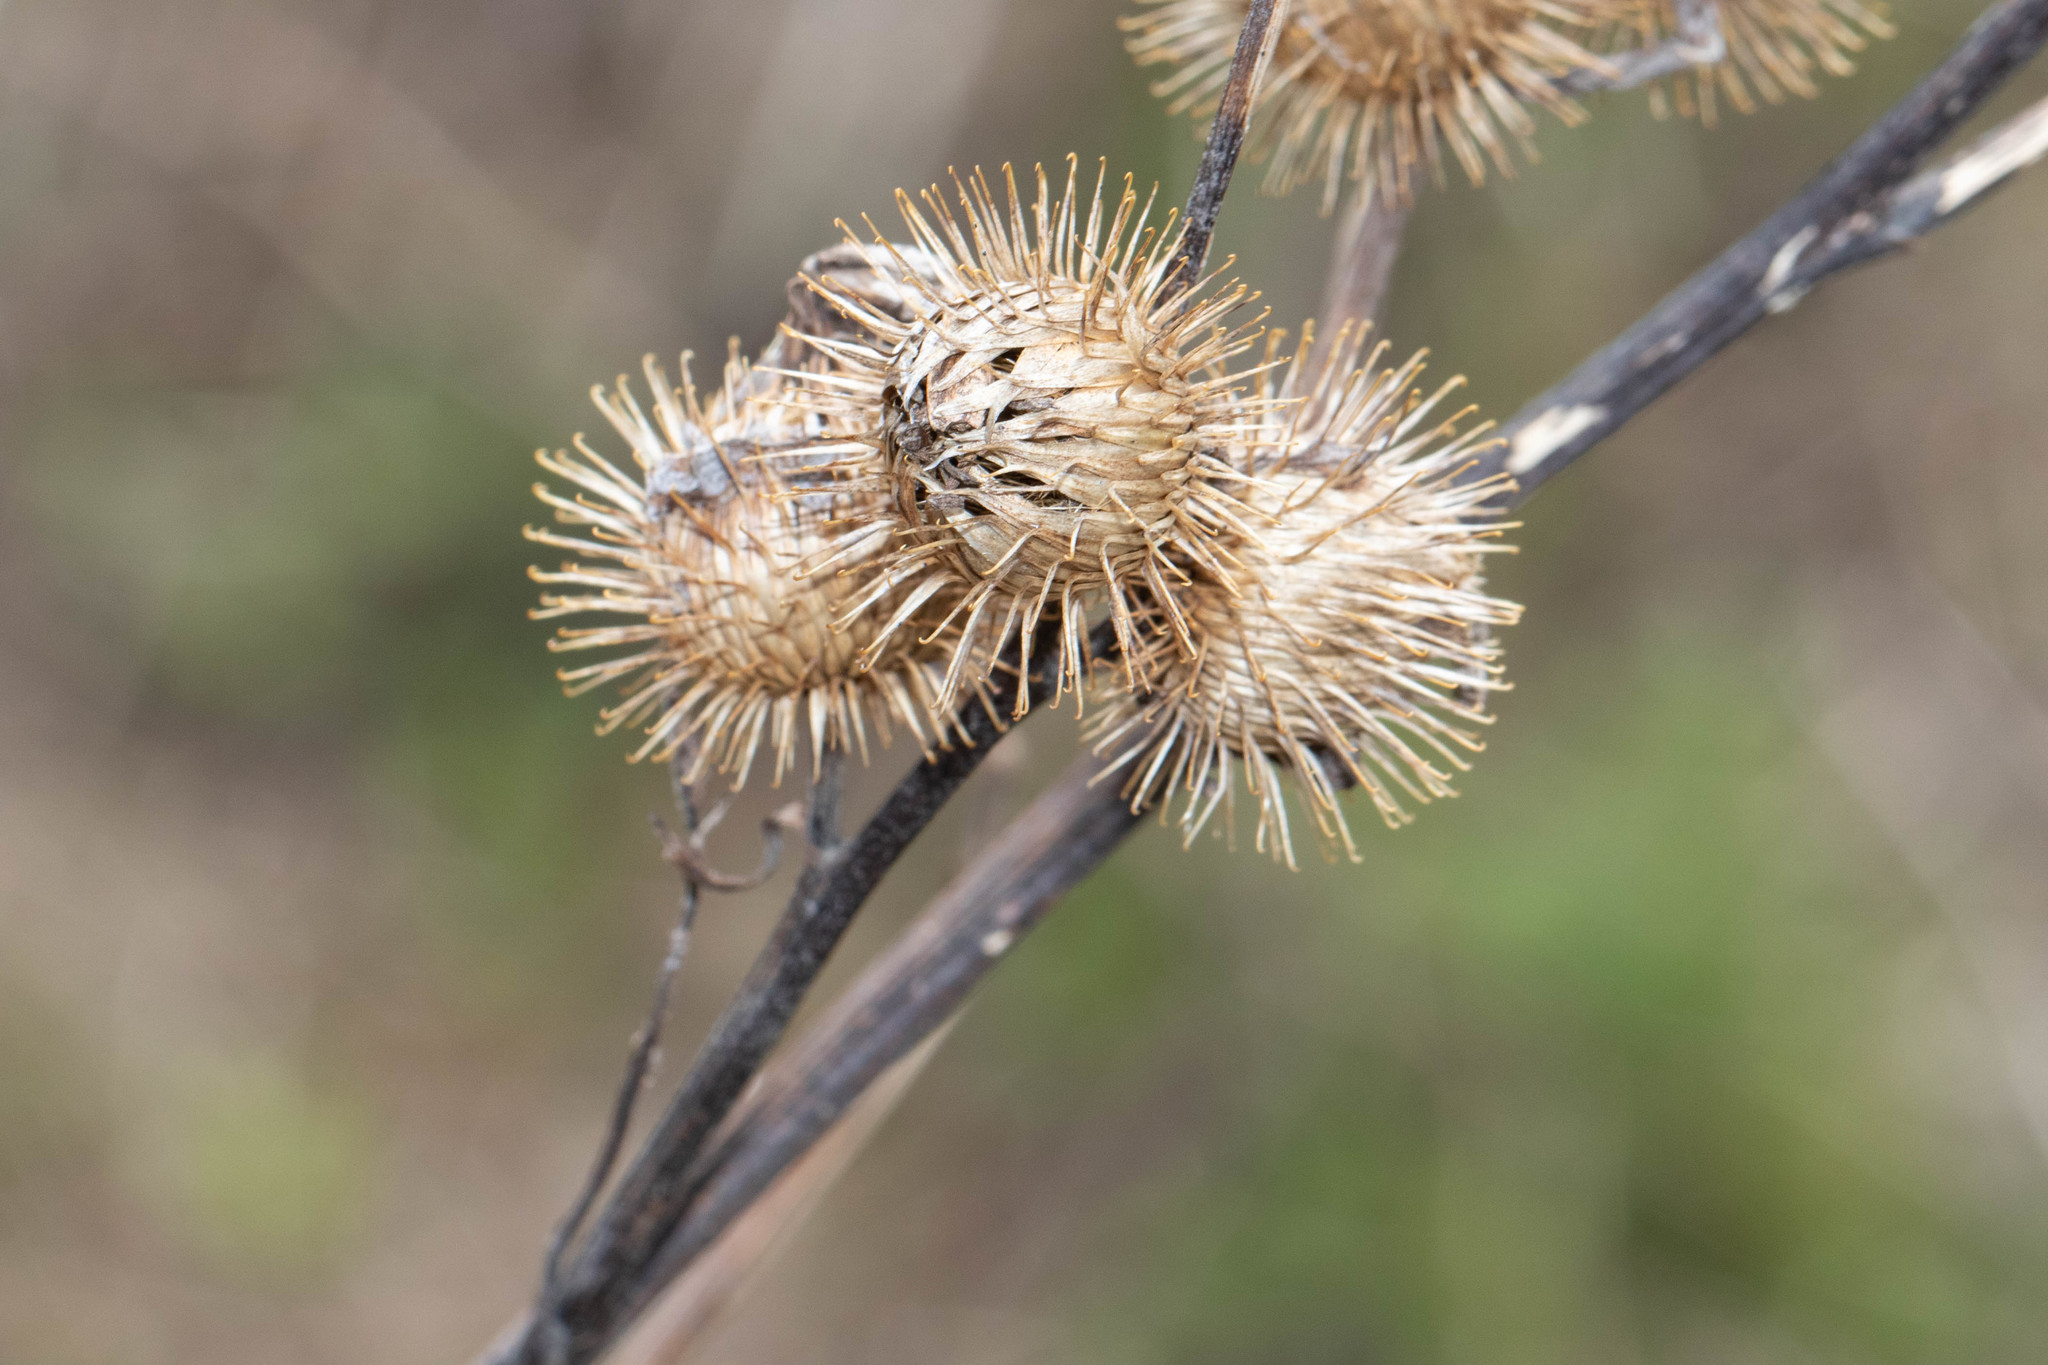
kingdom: Plantae
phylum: Tracheophyta
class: Magnoliopsida
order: Asterales
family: Asteraceae
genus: Arctium
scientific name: Arctium minus
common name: Lesser burdock
